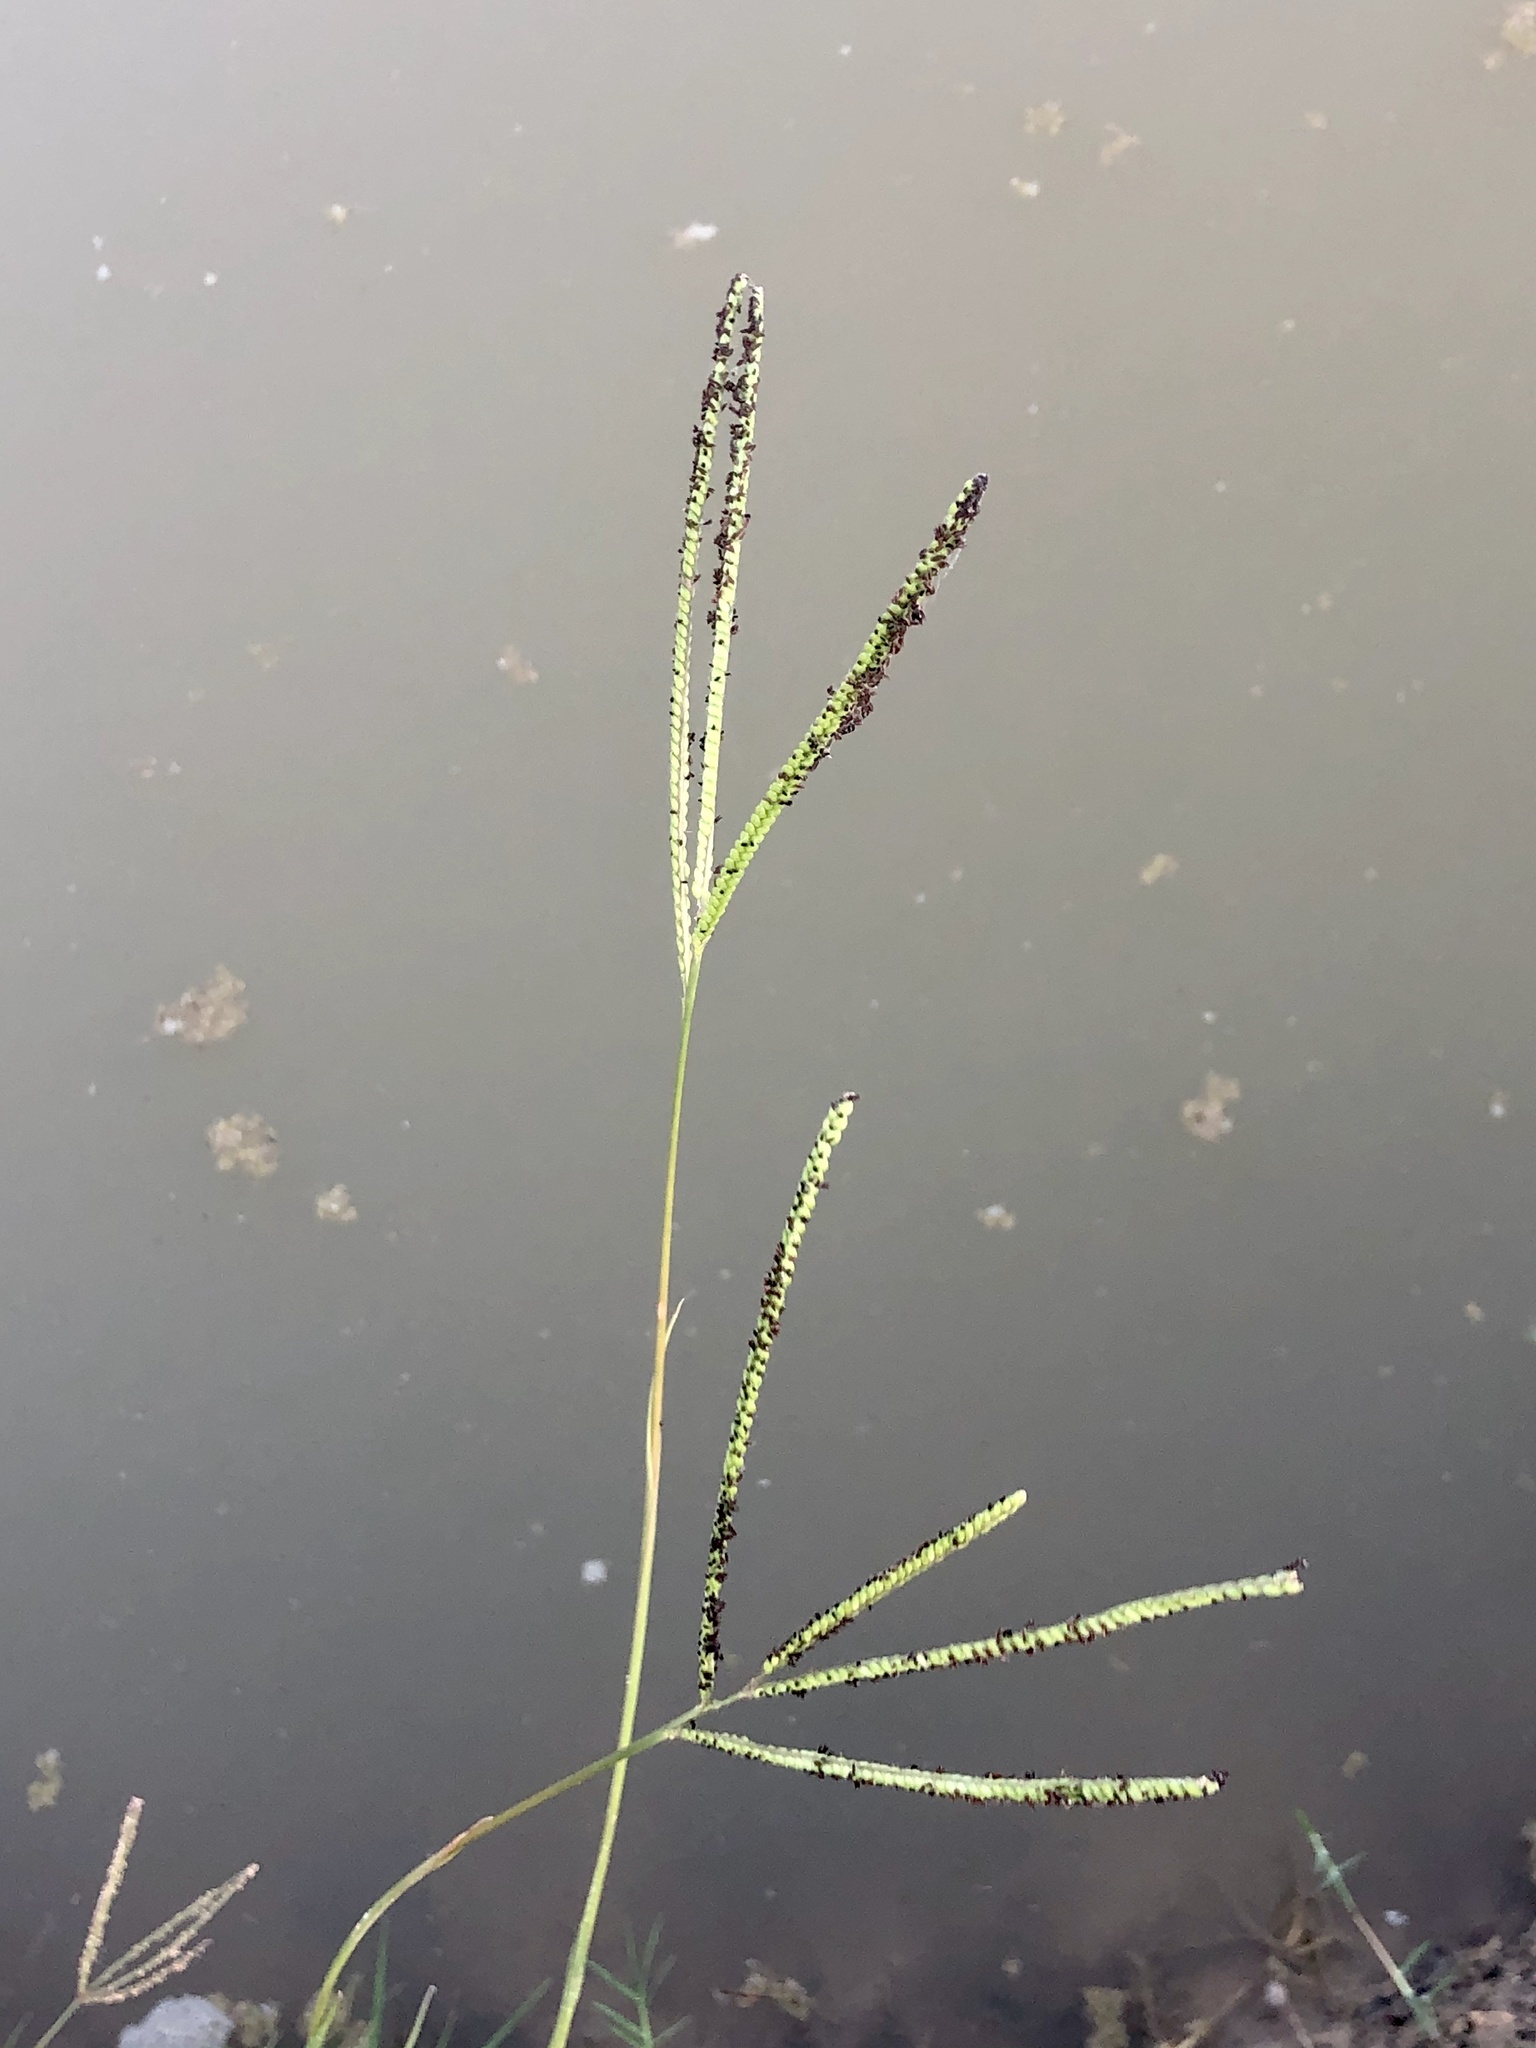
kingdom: Plantae
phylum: Tracheophyta
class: Liliopsida
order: Poales
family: Poaceae
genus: Paspalum
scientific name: Paspalum notatum
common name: Bahiagrass
